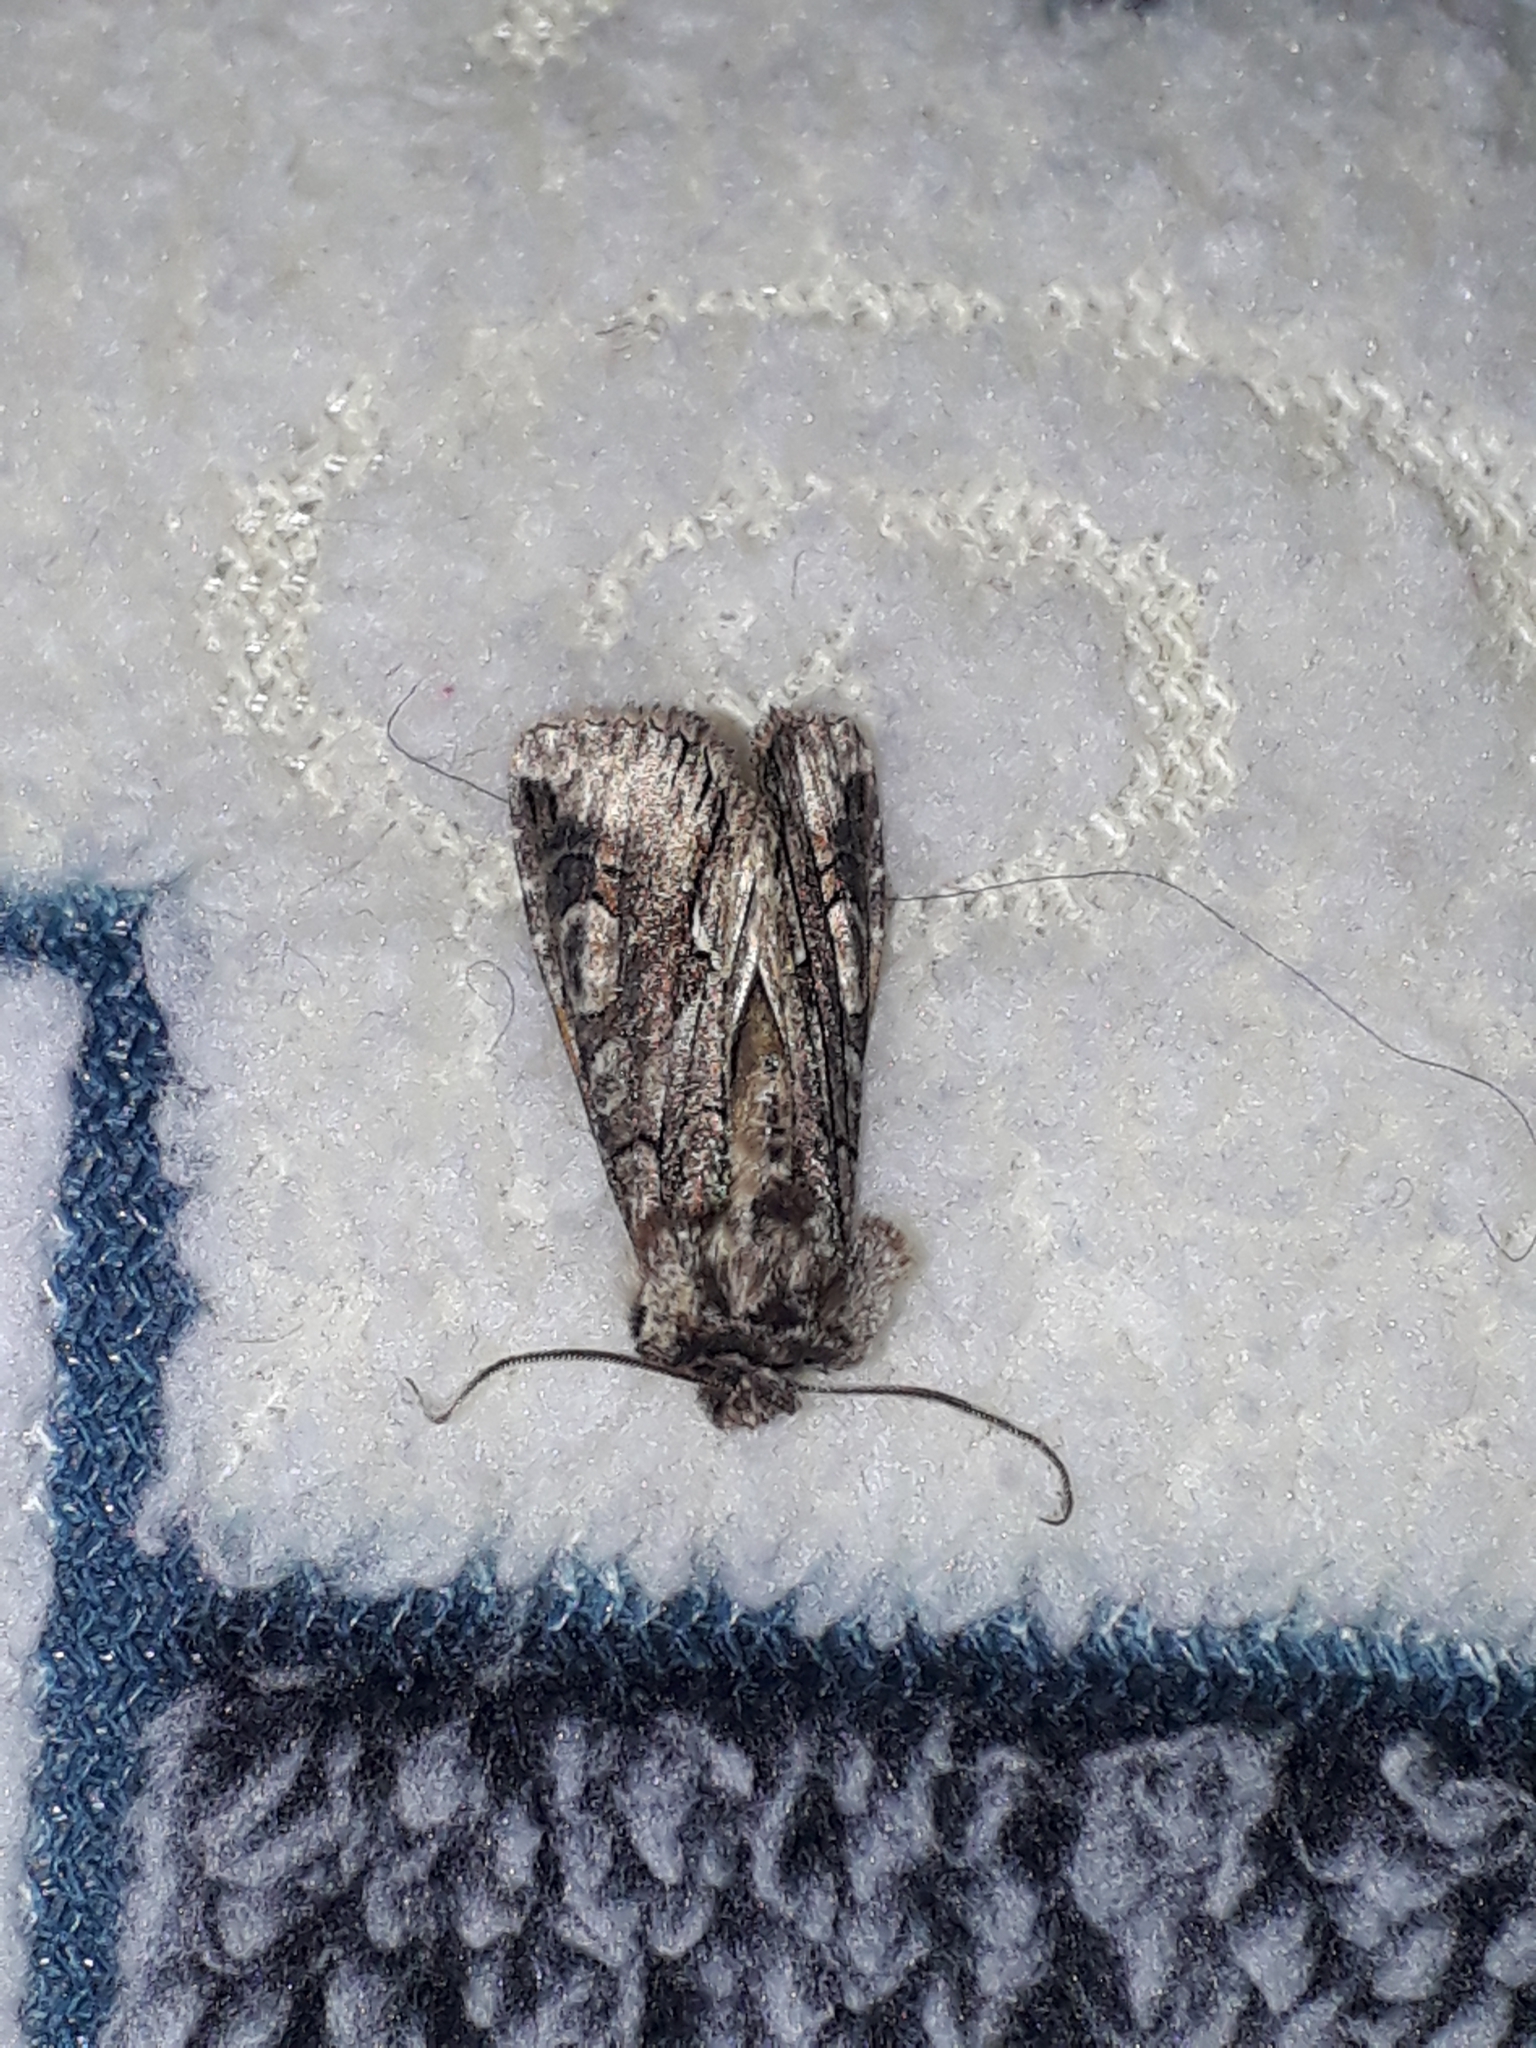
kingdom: Animalia
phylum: Arthropoda
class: Insecta
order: Lepidoptera
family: Noctuidae
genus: Allophyes
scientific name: Allophyes oxyacanthae
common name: Green-brindled crescent
